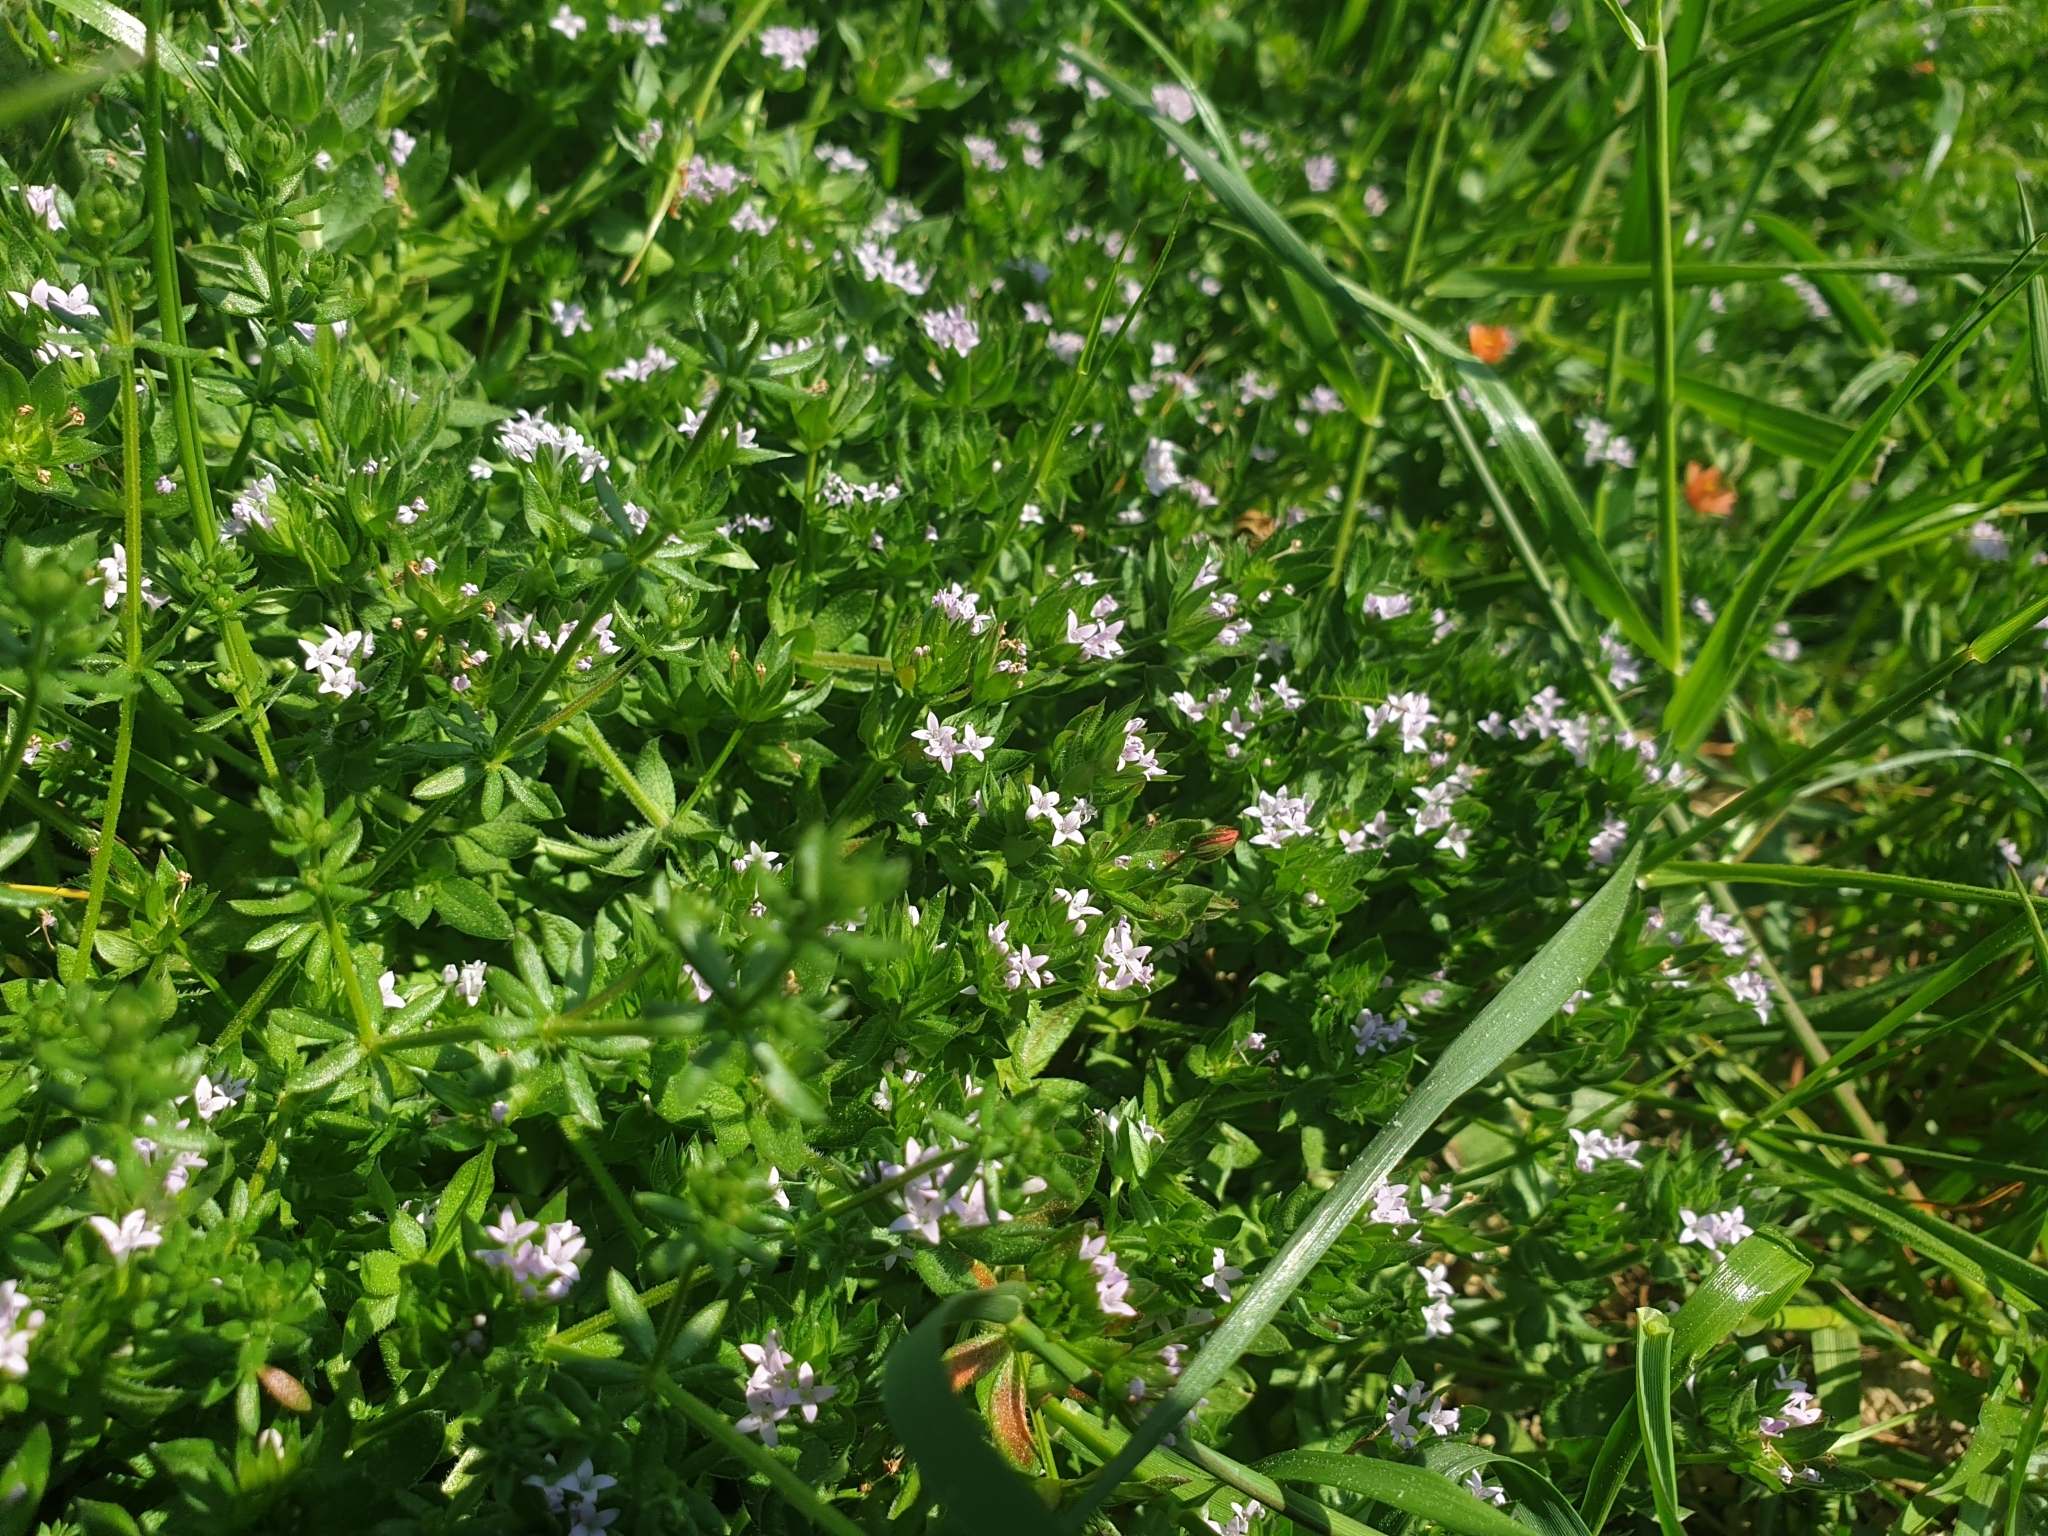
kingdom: Plantae
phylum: Tracheophyta
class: Magnoliopsida
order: Gentianales
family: Rubiaceae
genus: Sherardia
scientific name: Sherardia arvensis
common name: Field madder
